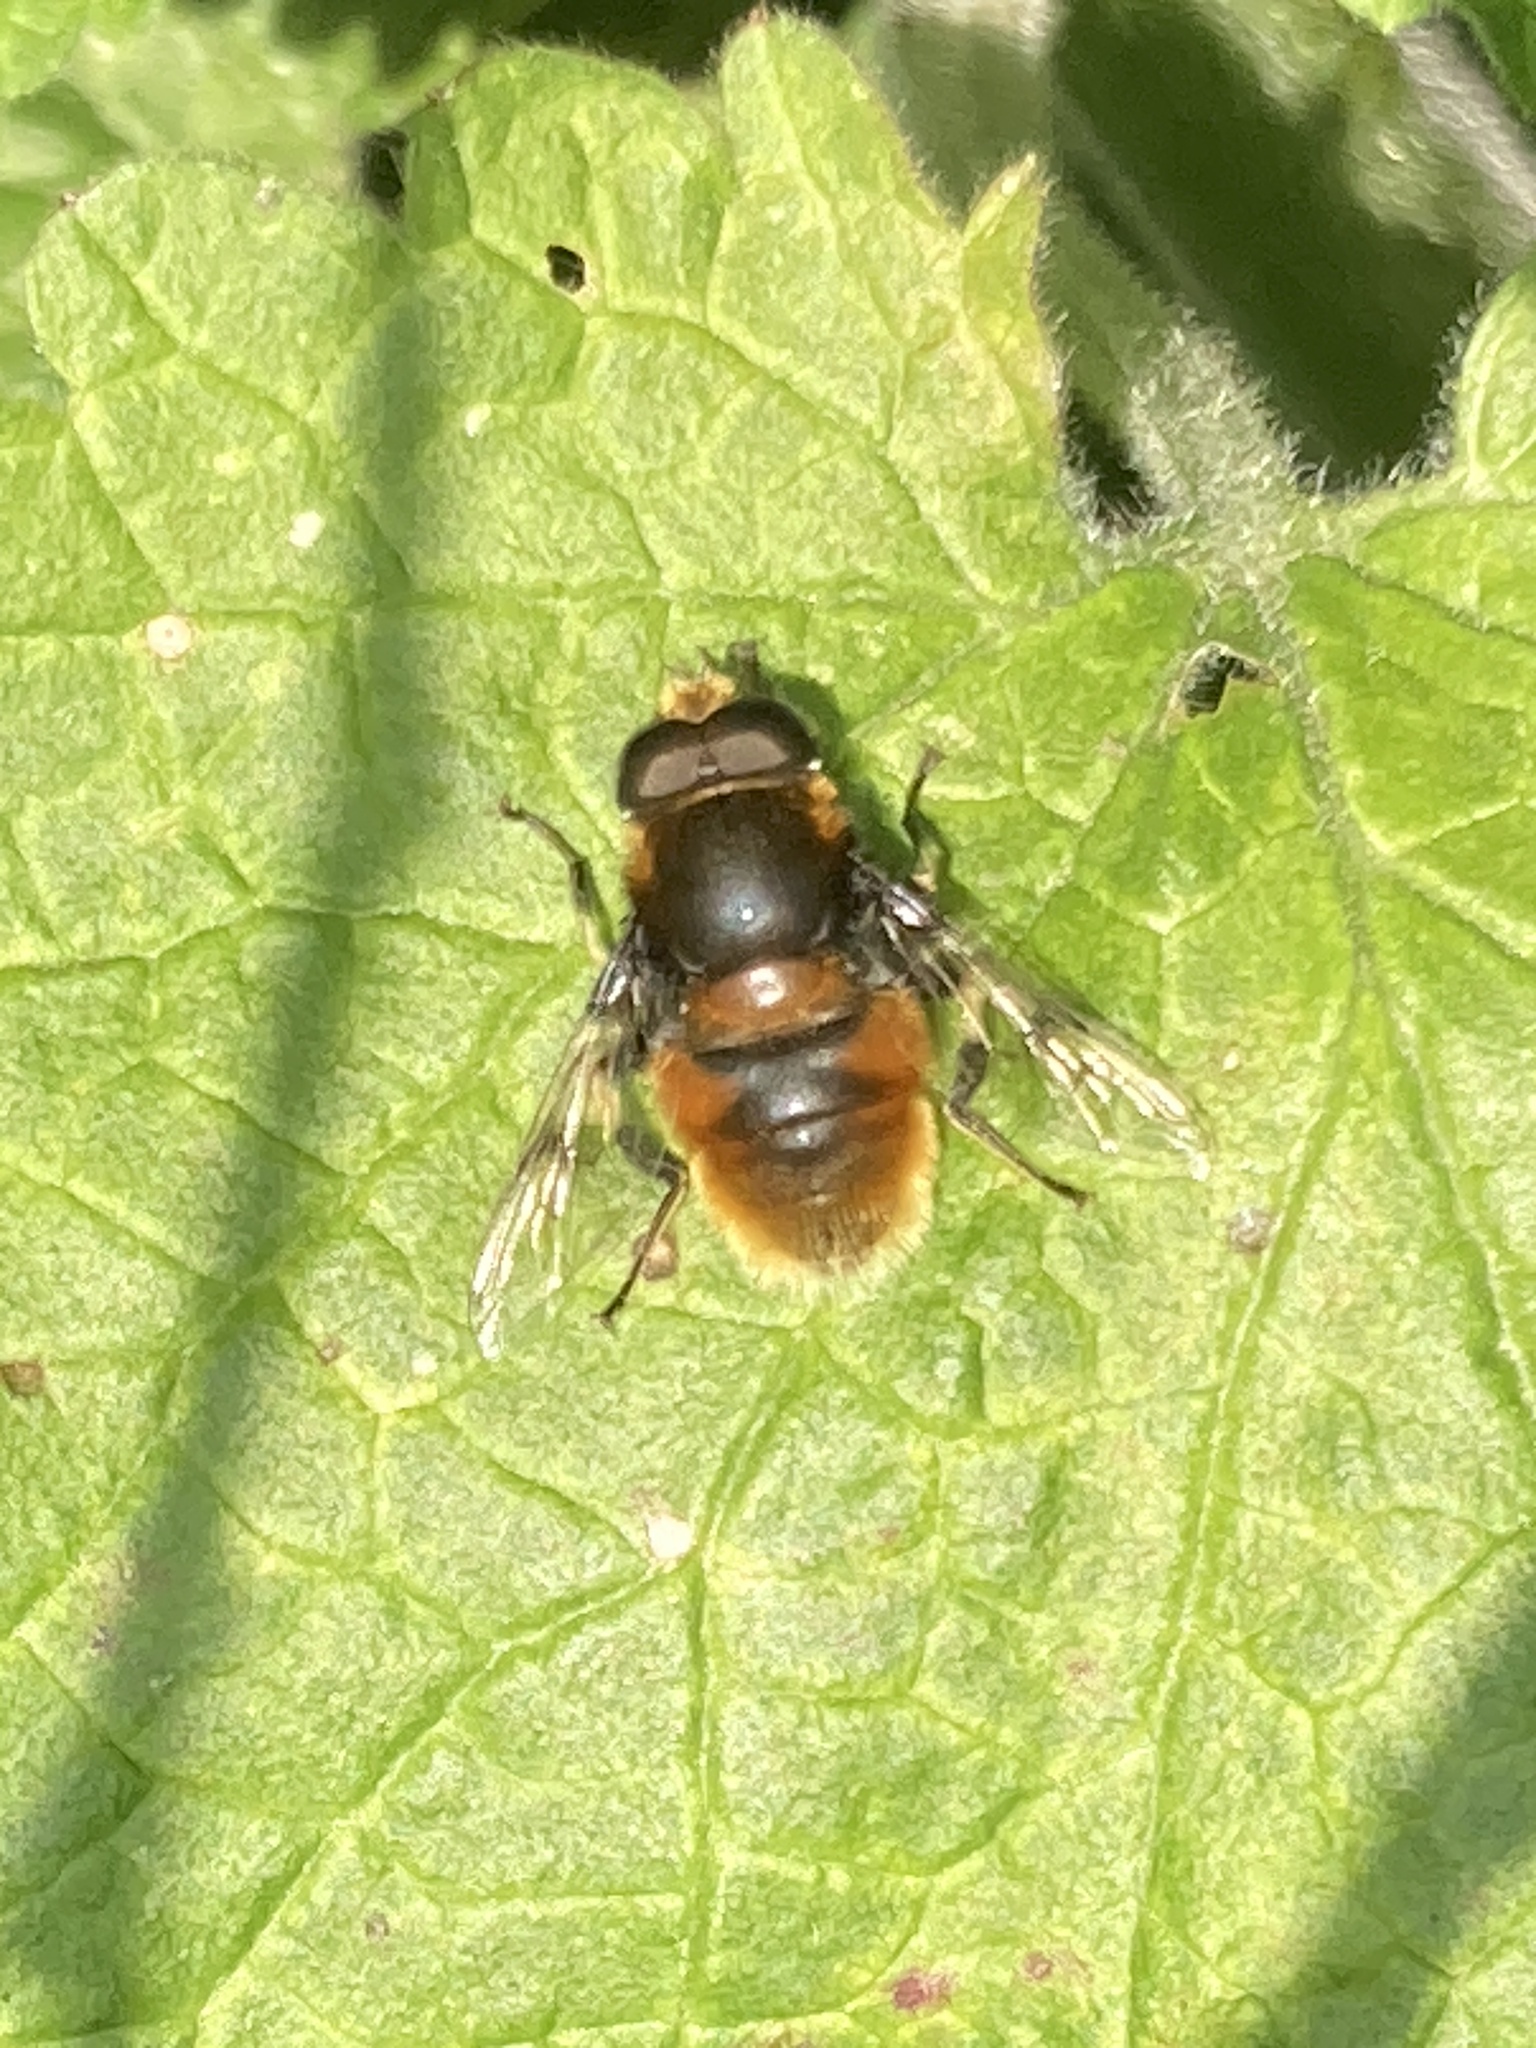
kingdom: Animalia
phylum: Arthropoda
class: Insecta
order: Diptera
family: Syrphidae
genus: Eristalis
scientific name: Eristalis intricaria
